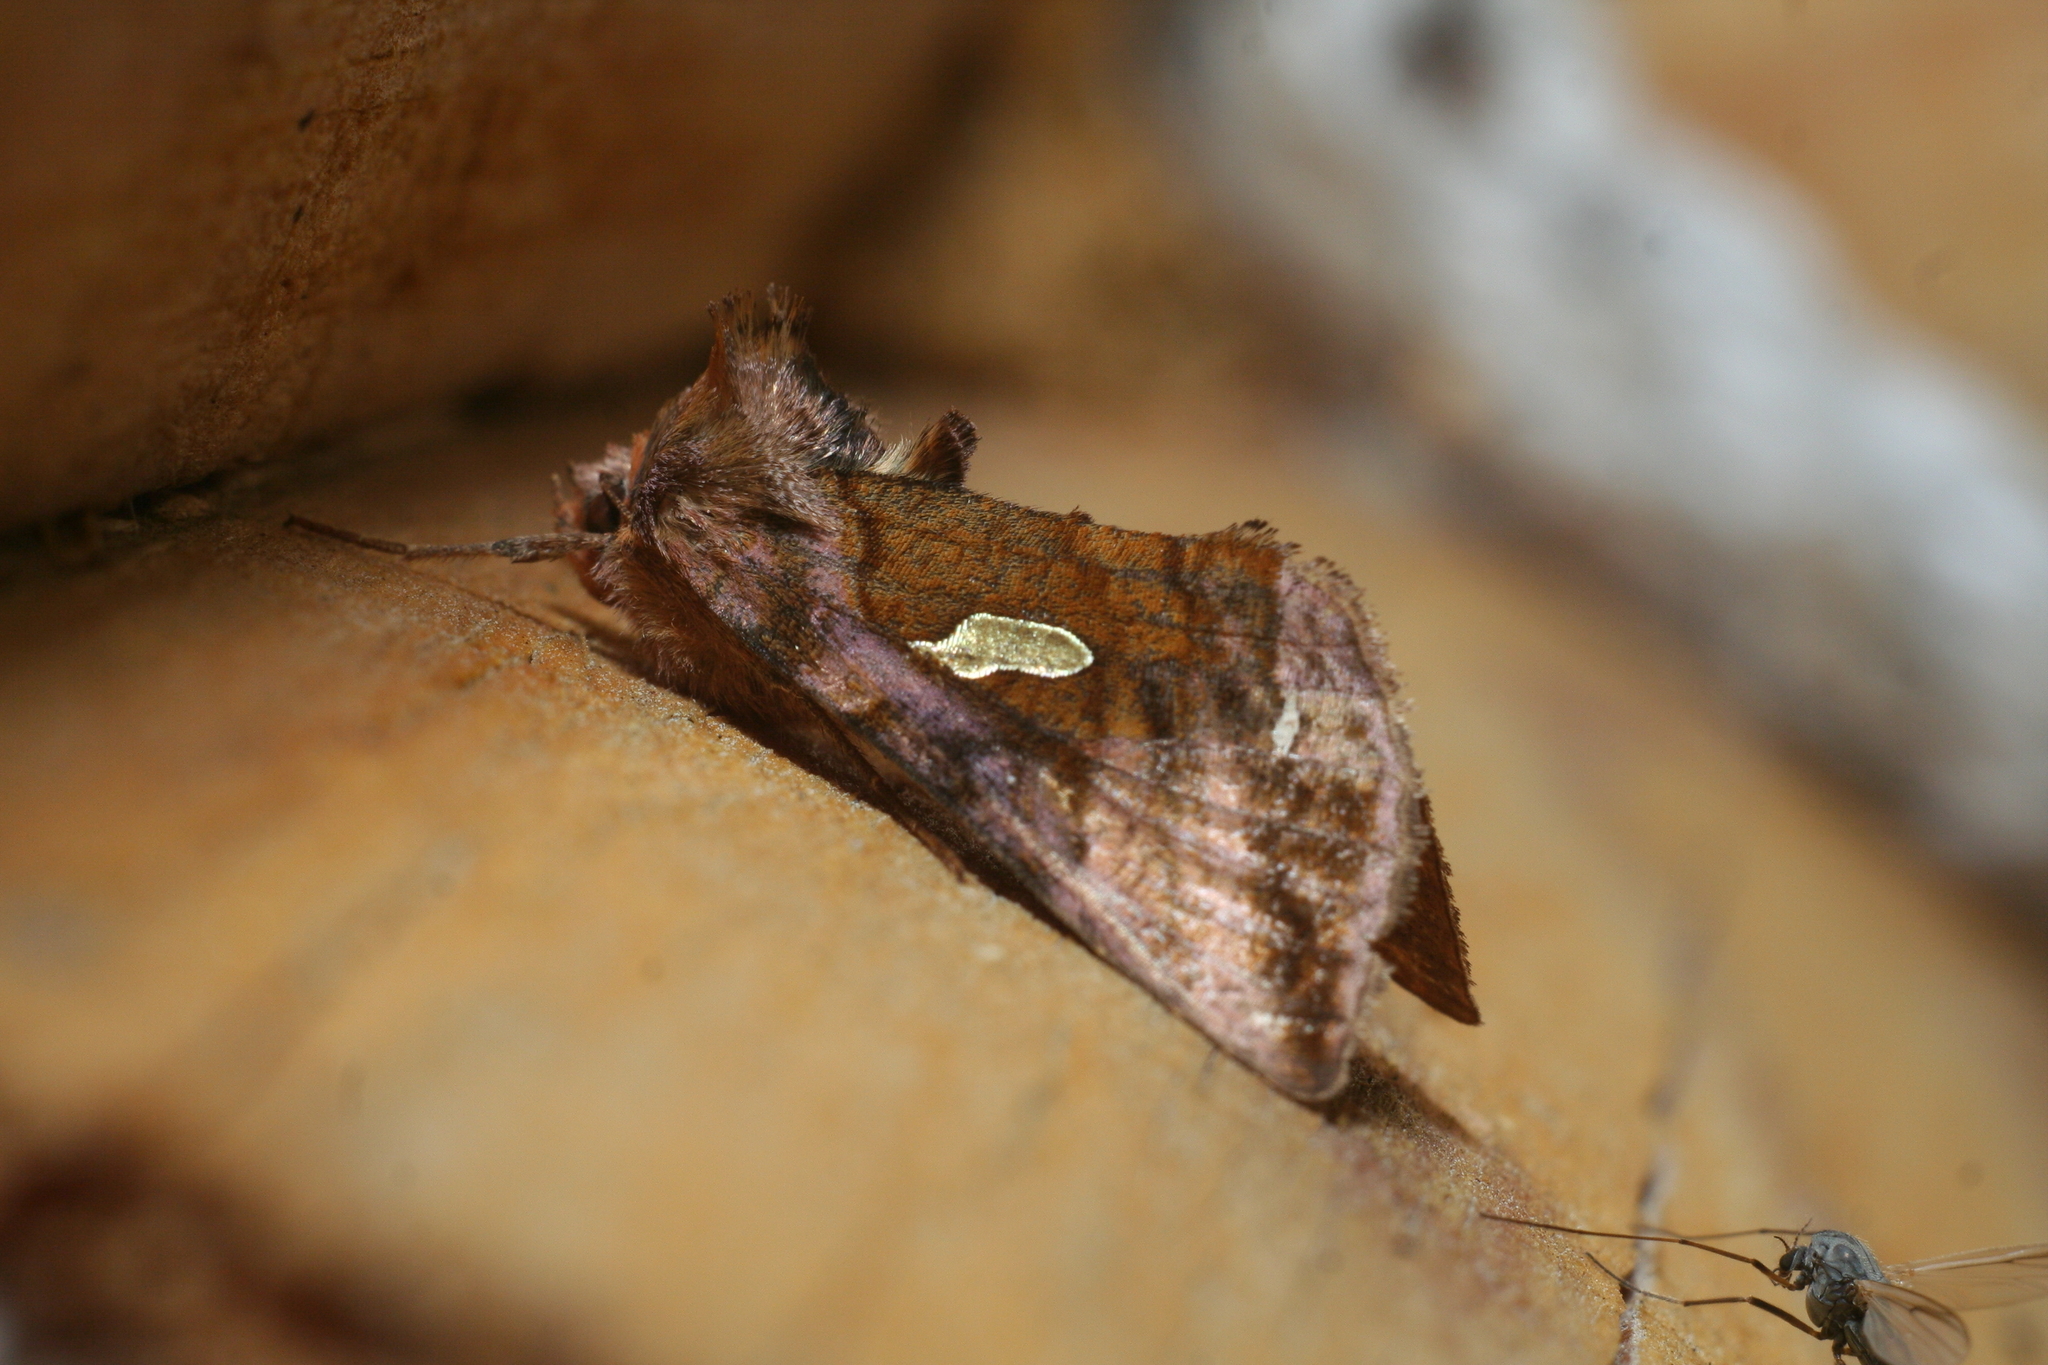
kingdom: Animalia
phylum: Arthropoda
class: Insecta
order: Lepidoptera
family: Noctuidae
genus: Autographa
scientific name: Autographa excelsa
